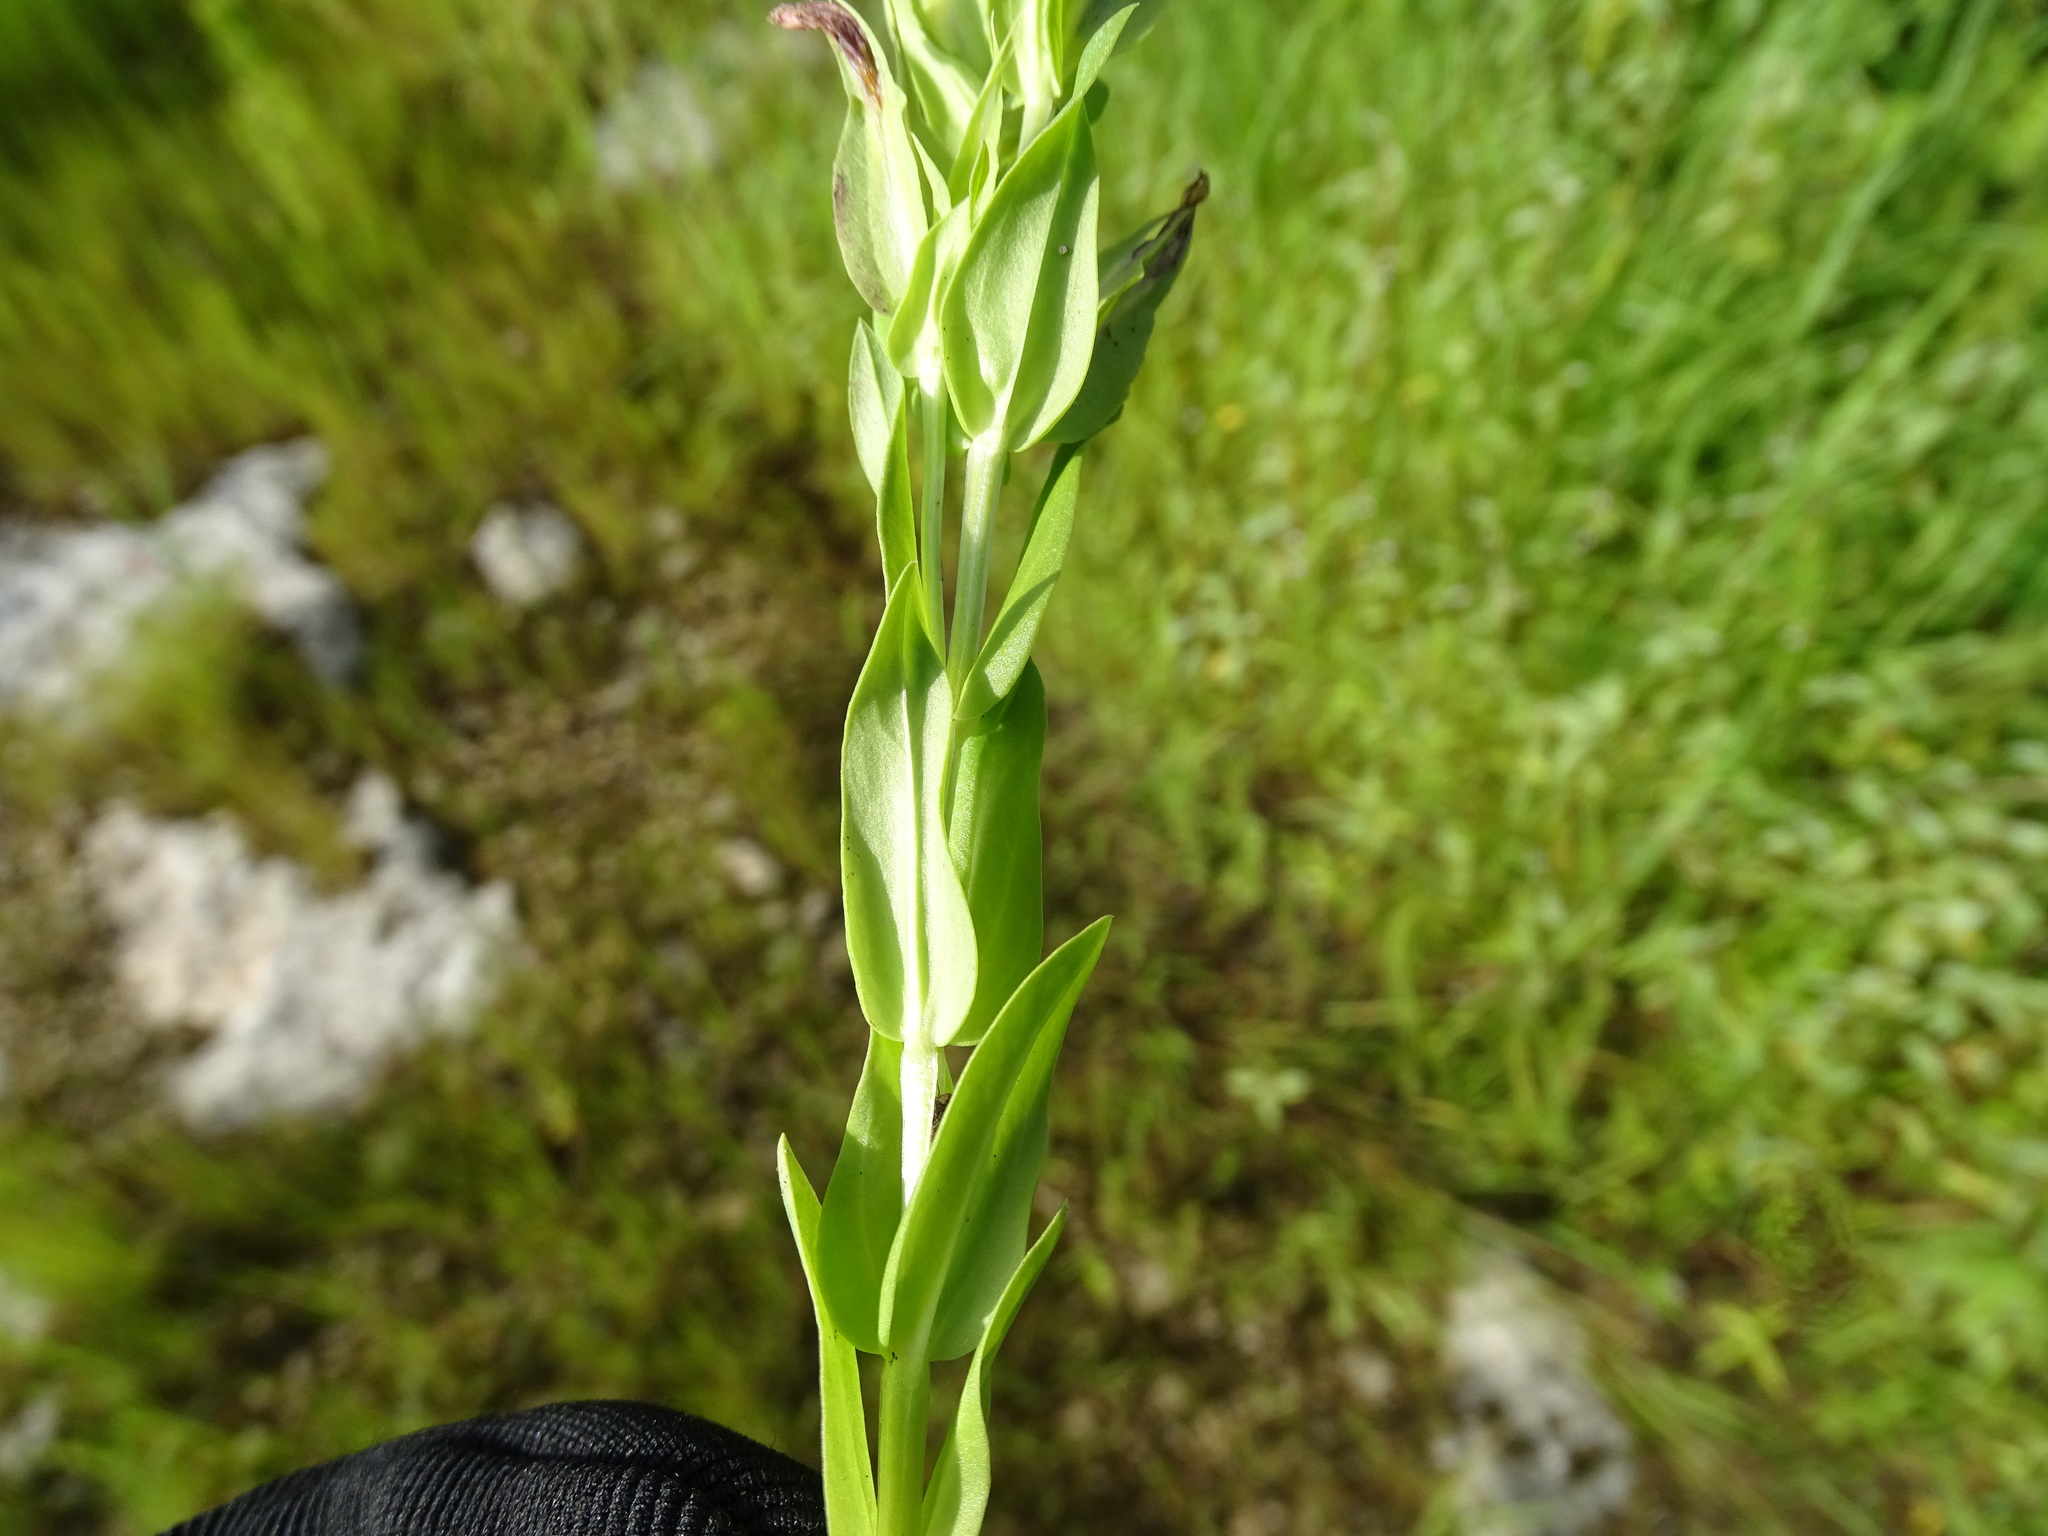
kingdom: Plantae
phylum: Tracheophyta
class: Magnoliopsida
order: Gentianales
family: Gentianaceae
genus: Schultesia
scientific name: Schultesia brachyptera
